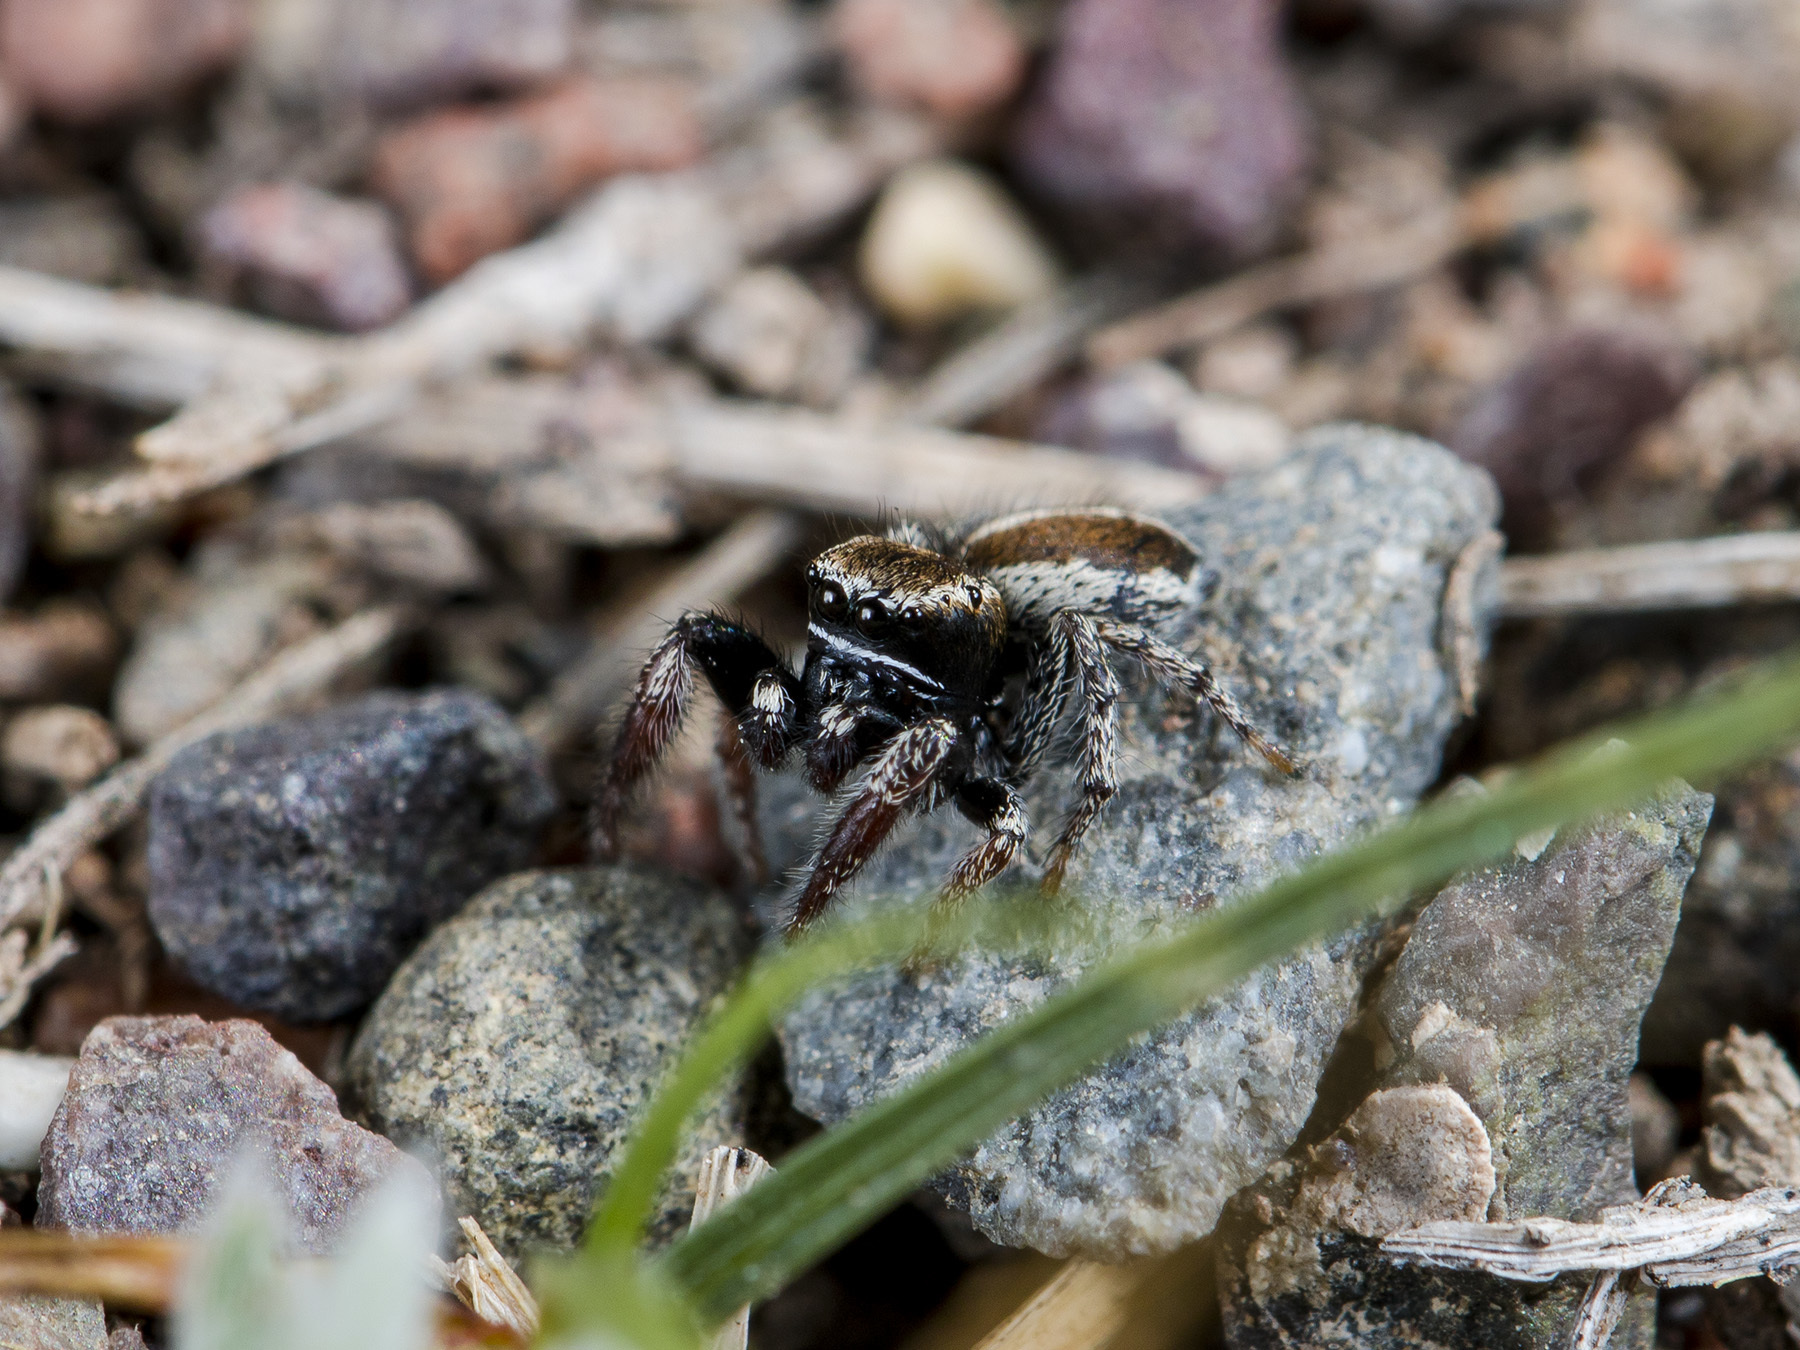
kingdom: Animalia
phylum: Arthropoda
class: Arachnida
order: Araneae
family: Salticidae
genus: Pellenes
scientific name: Pellenes epularis
